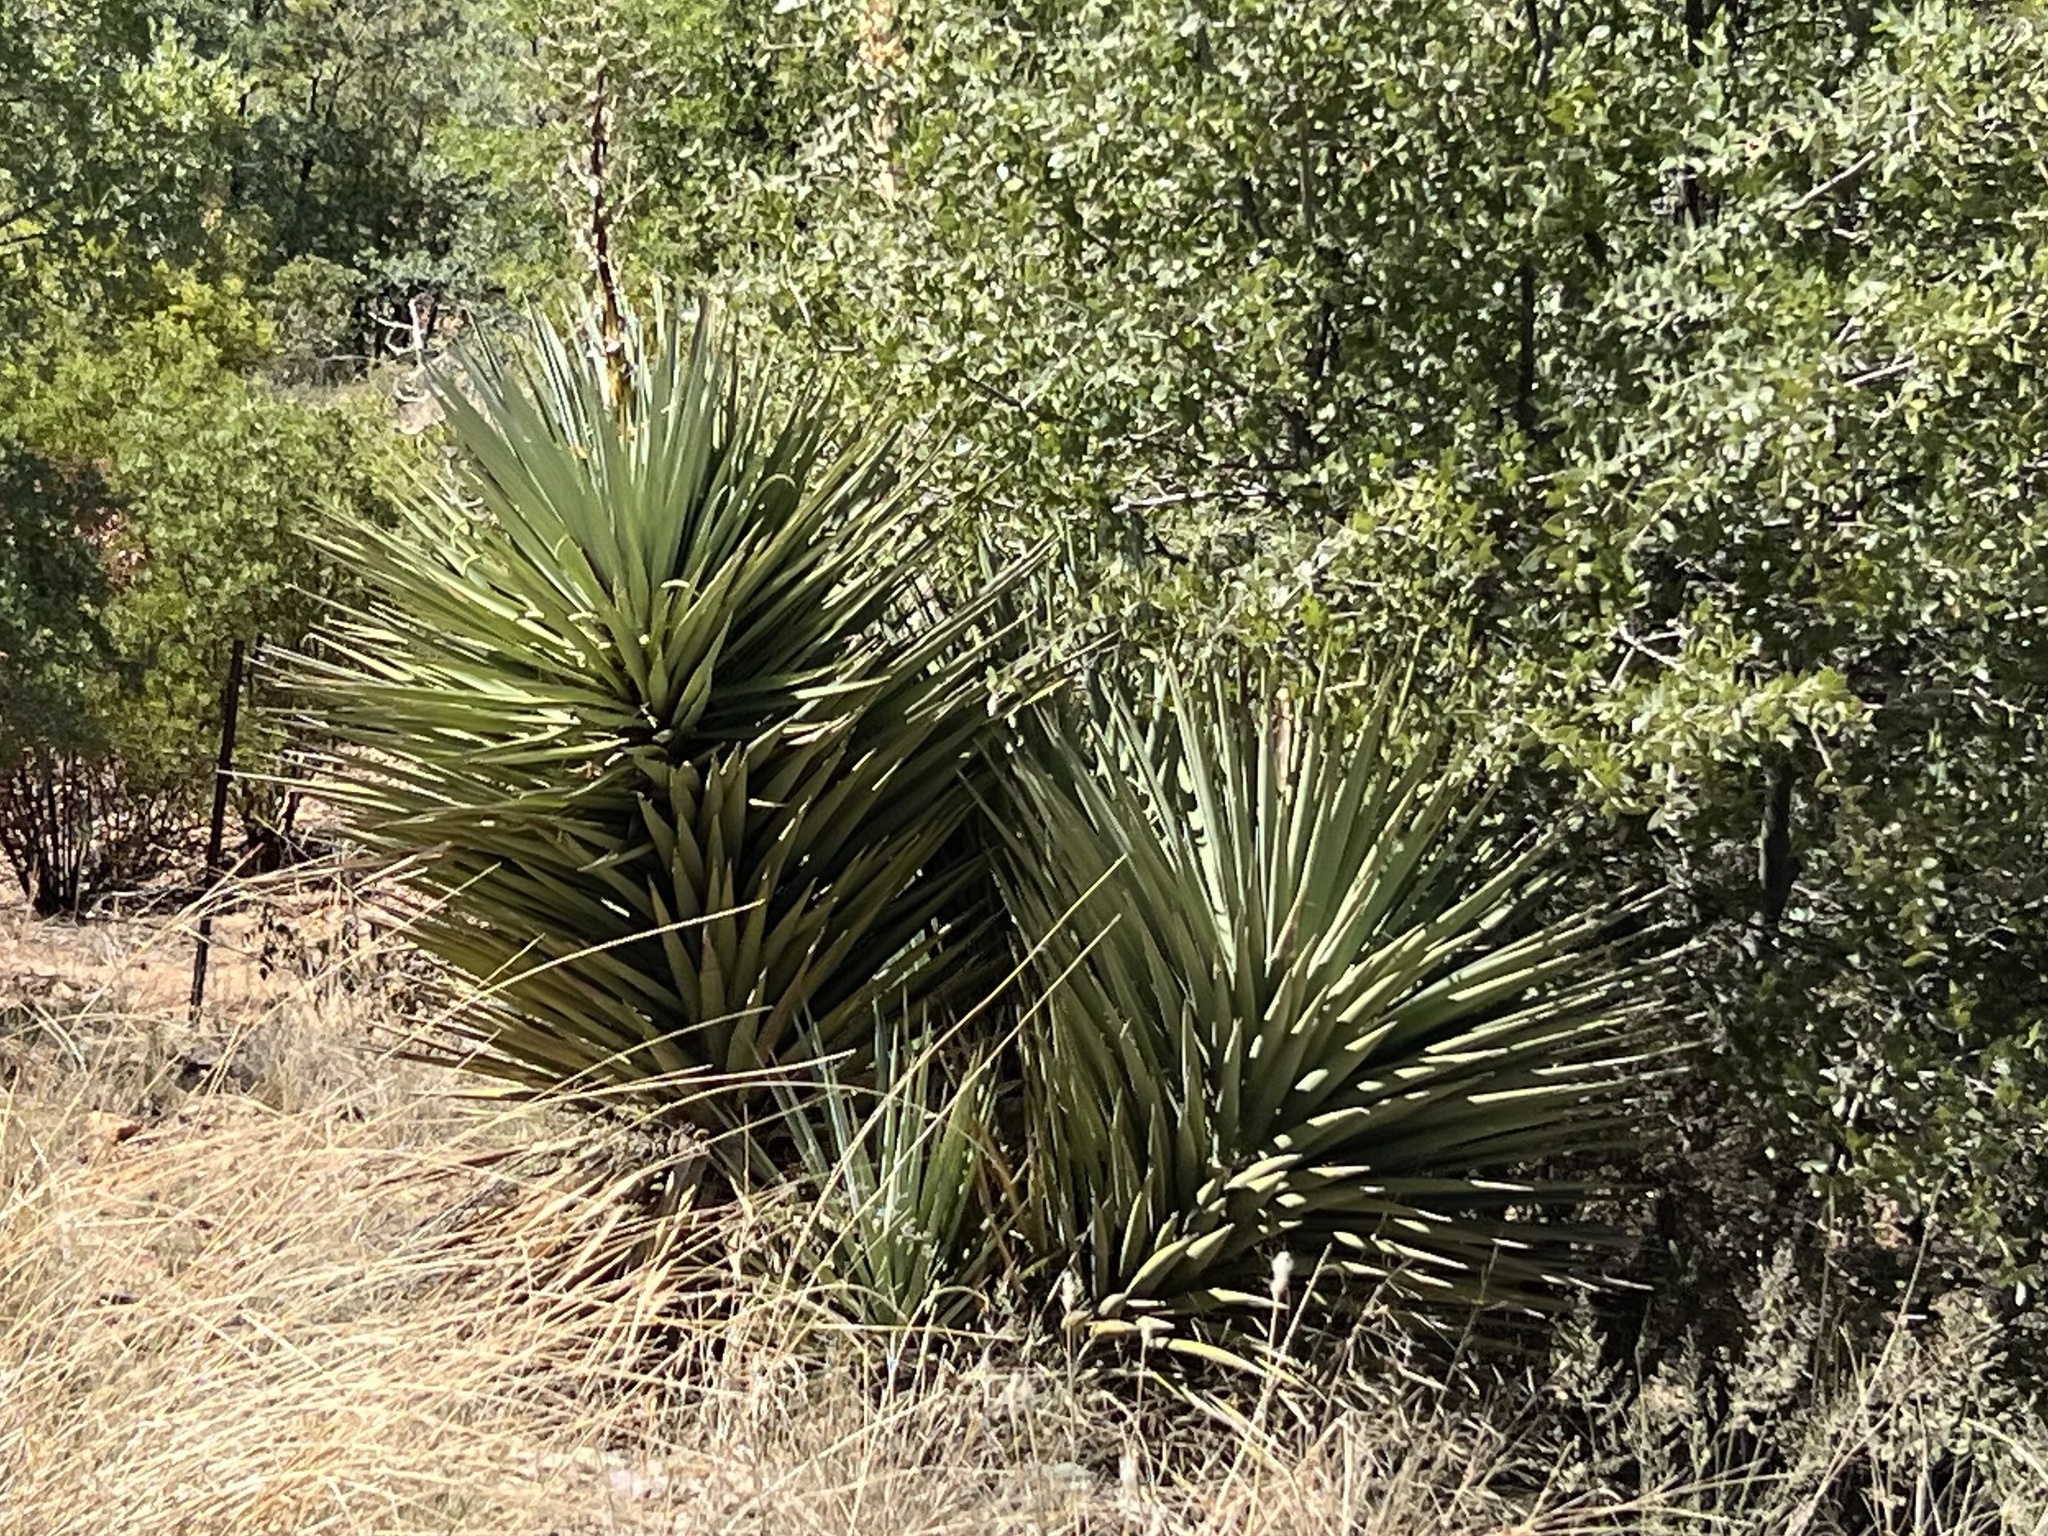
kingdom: Plantae
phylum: Tracheophyta
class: Liliopsida
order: Asparagales
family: Asparagaceae
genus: Yucca
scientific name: Yucca schottii
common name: Hoary yucca
